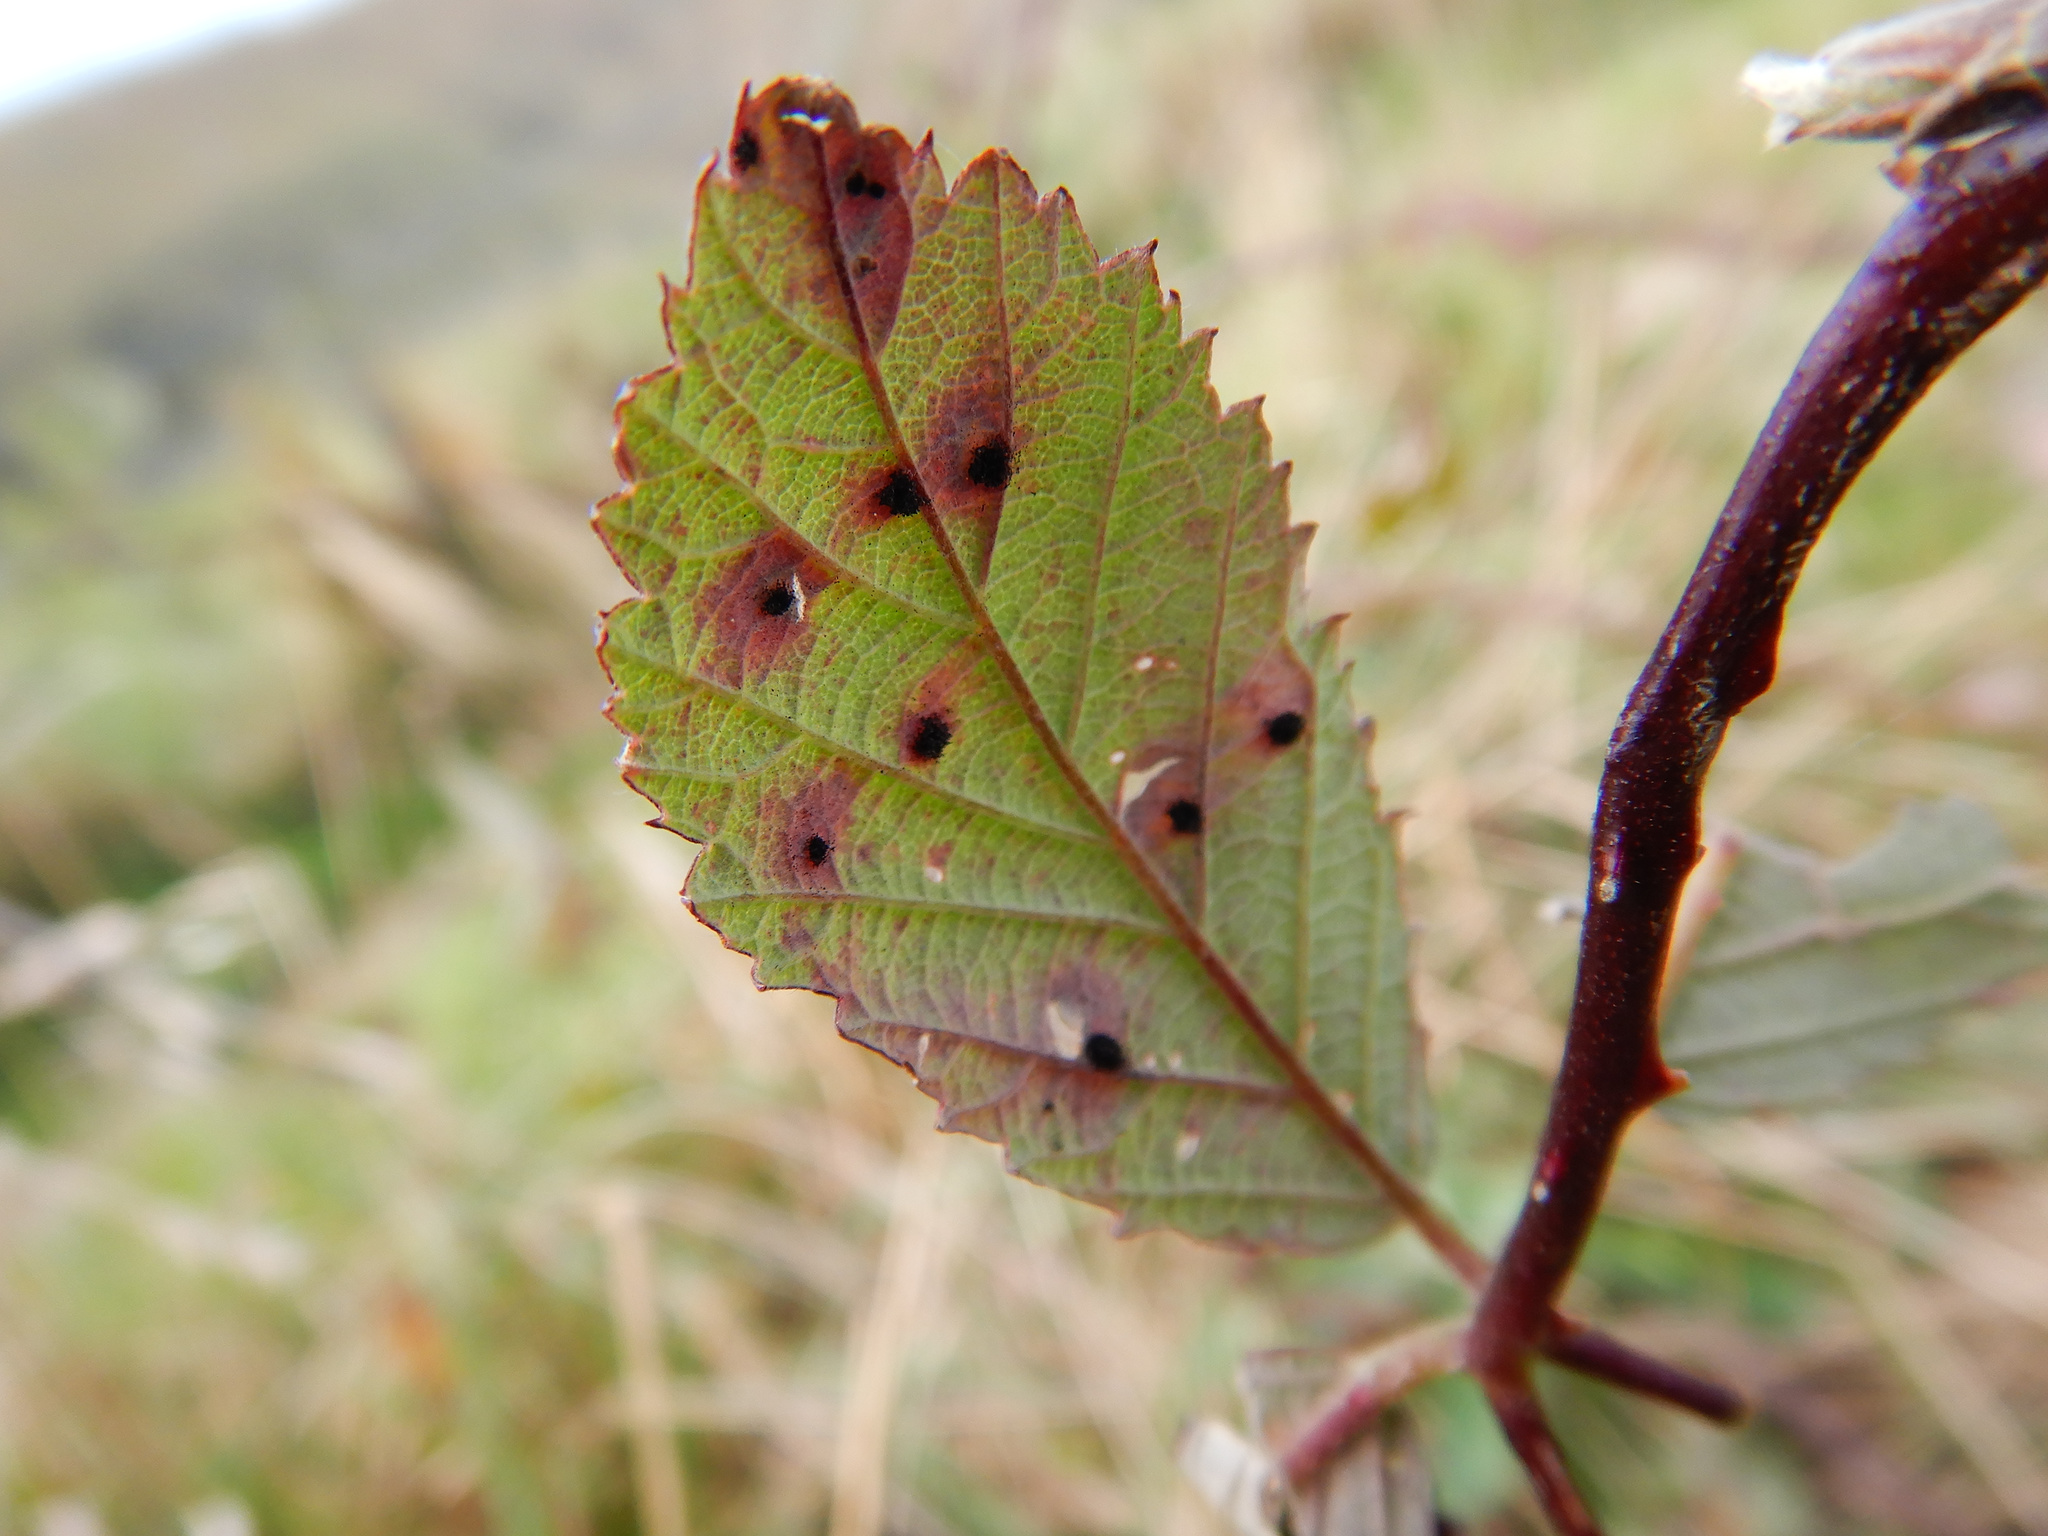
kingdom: Fungi
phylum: Basidiomycota
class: Pucciniomycetes
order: Pucciniales
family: Phragmidiaceae
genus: Phragmidium
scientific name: Phragmidium violaceum
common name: Violet bramble rust
